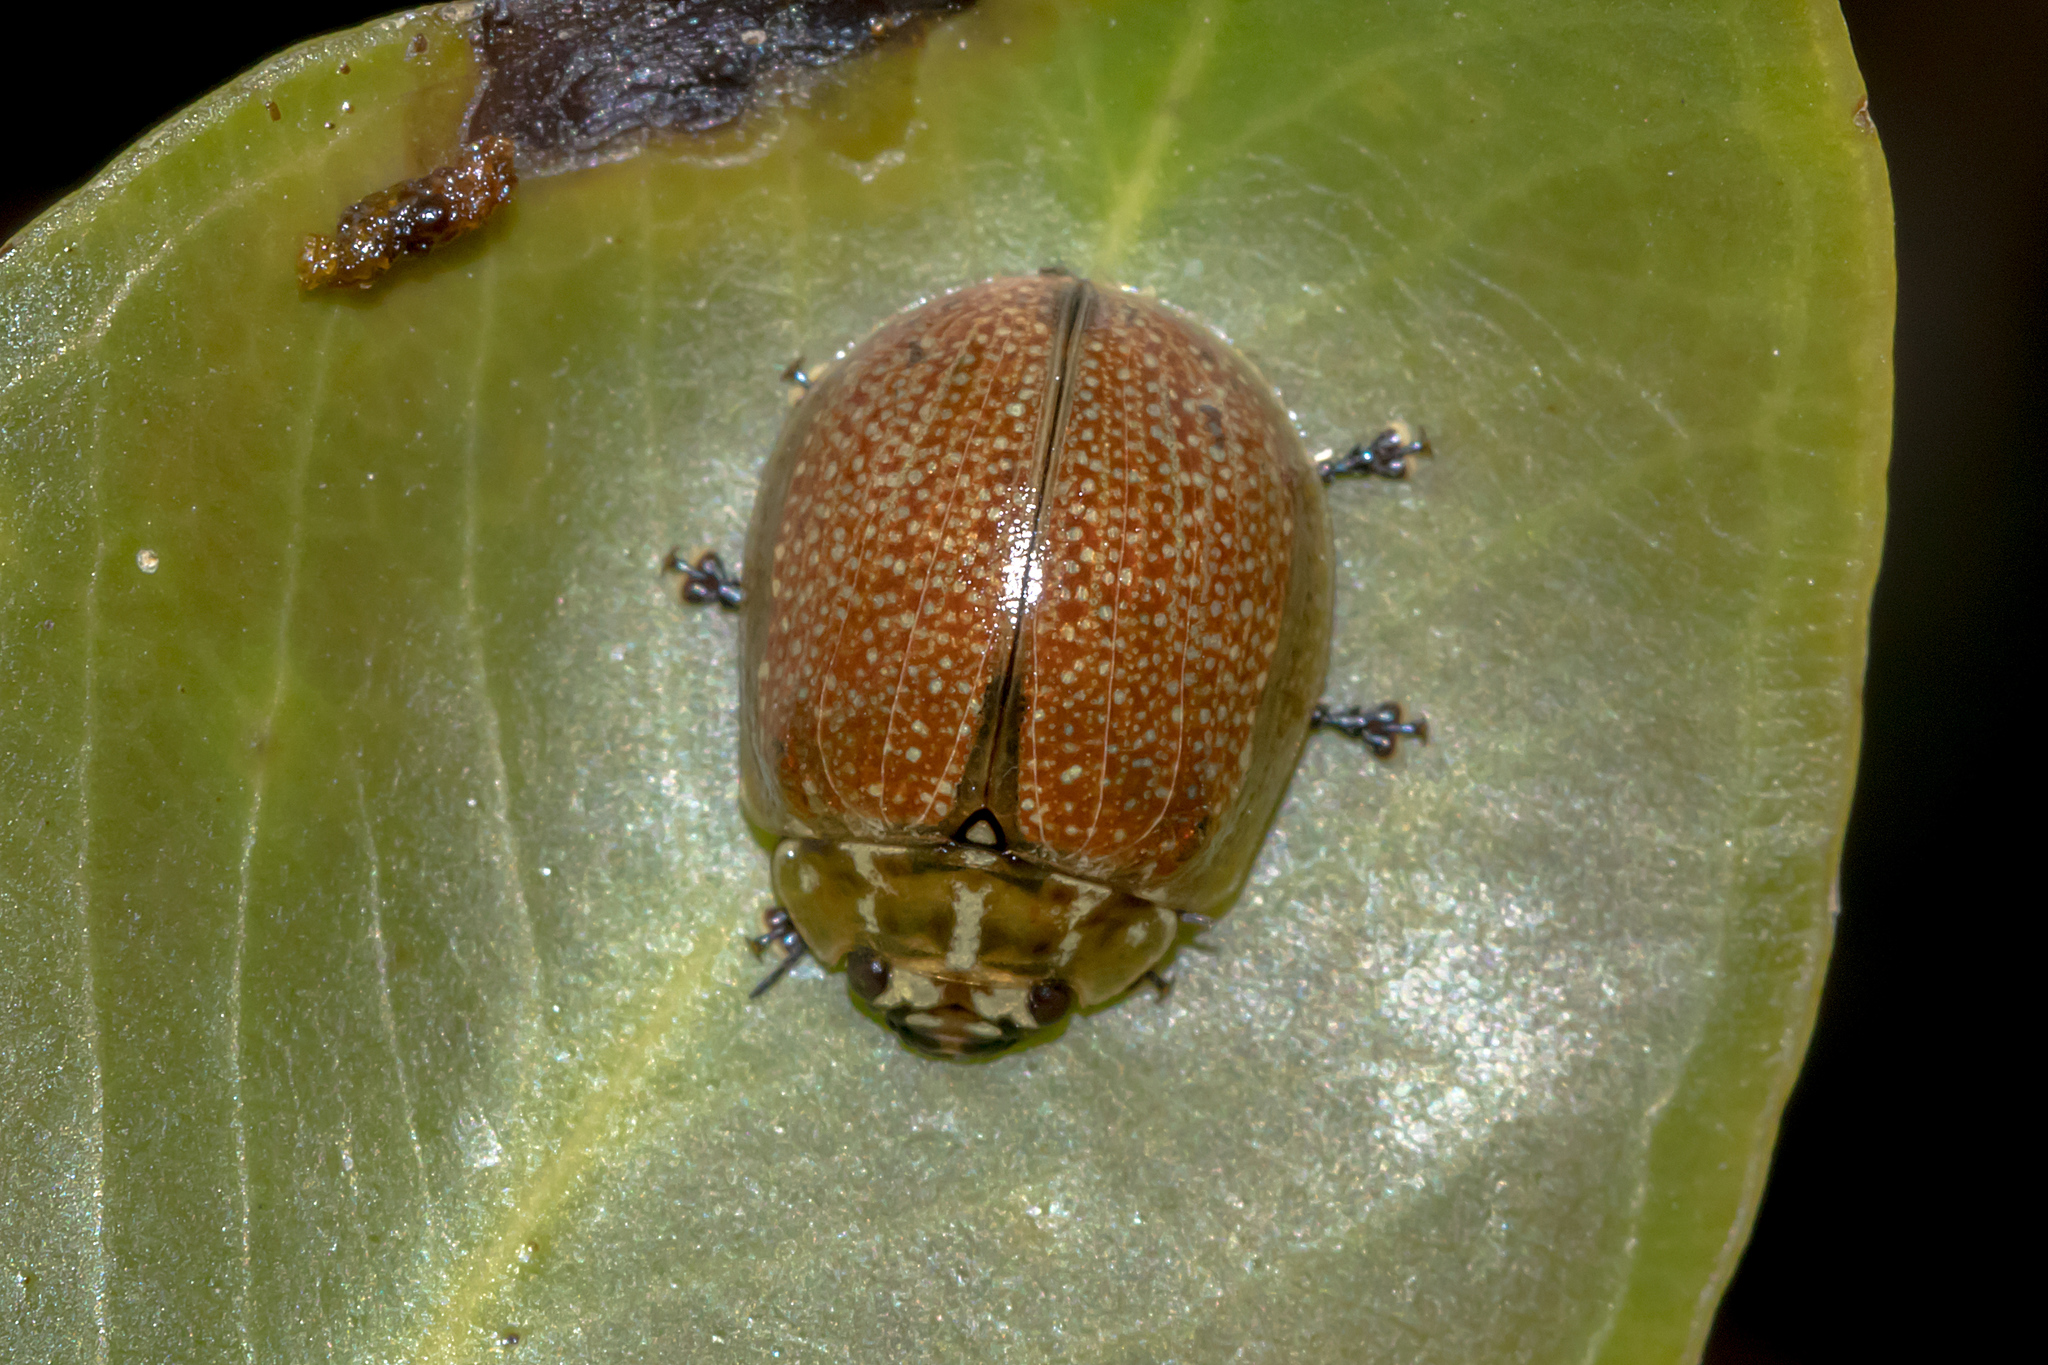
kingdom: Animalia
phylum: Arthropoda
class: Insecta
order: Coleoptera
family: Chrysomelidae
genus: Paropsisterna
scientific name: Paropsisterna cloelia
